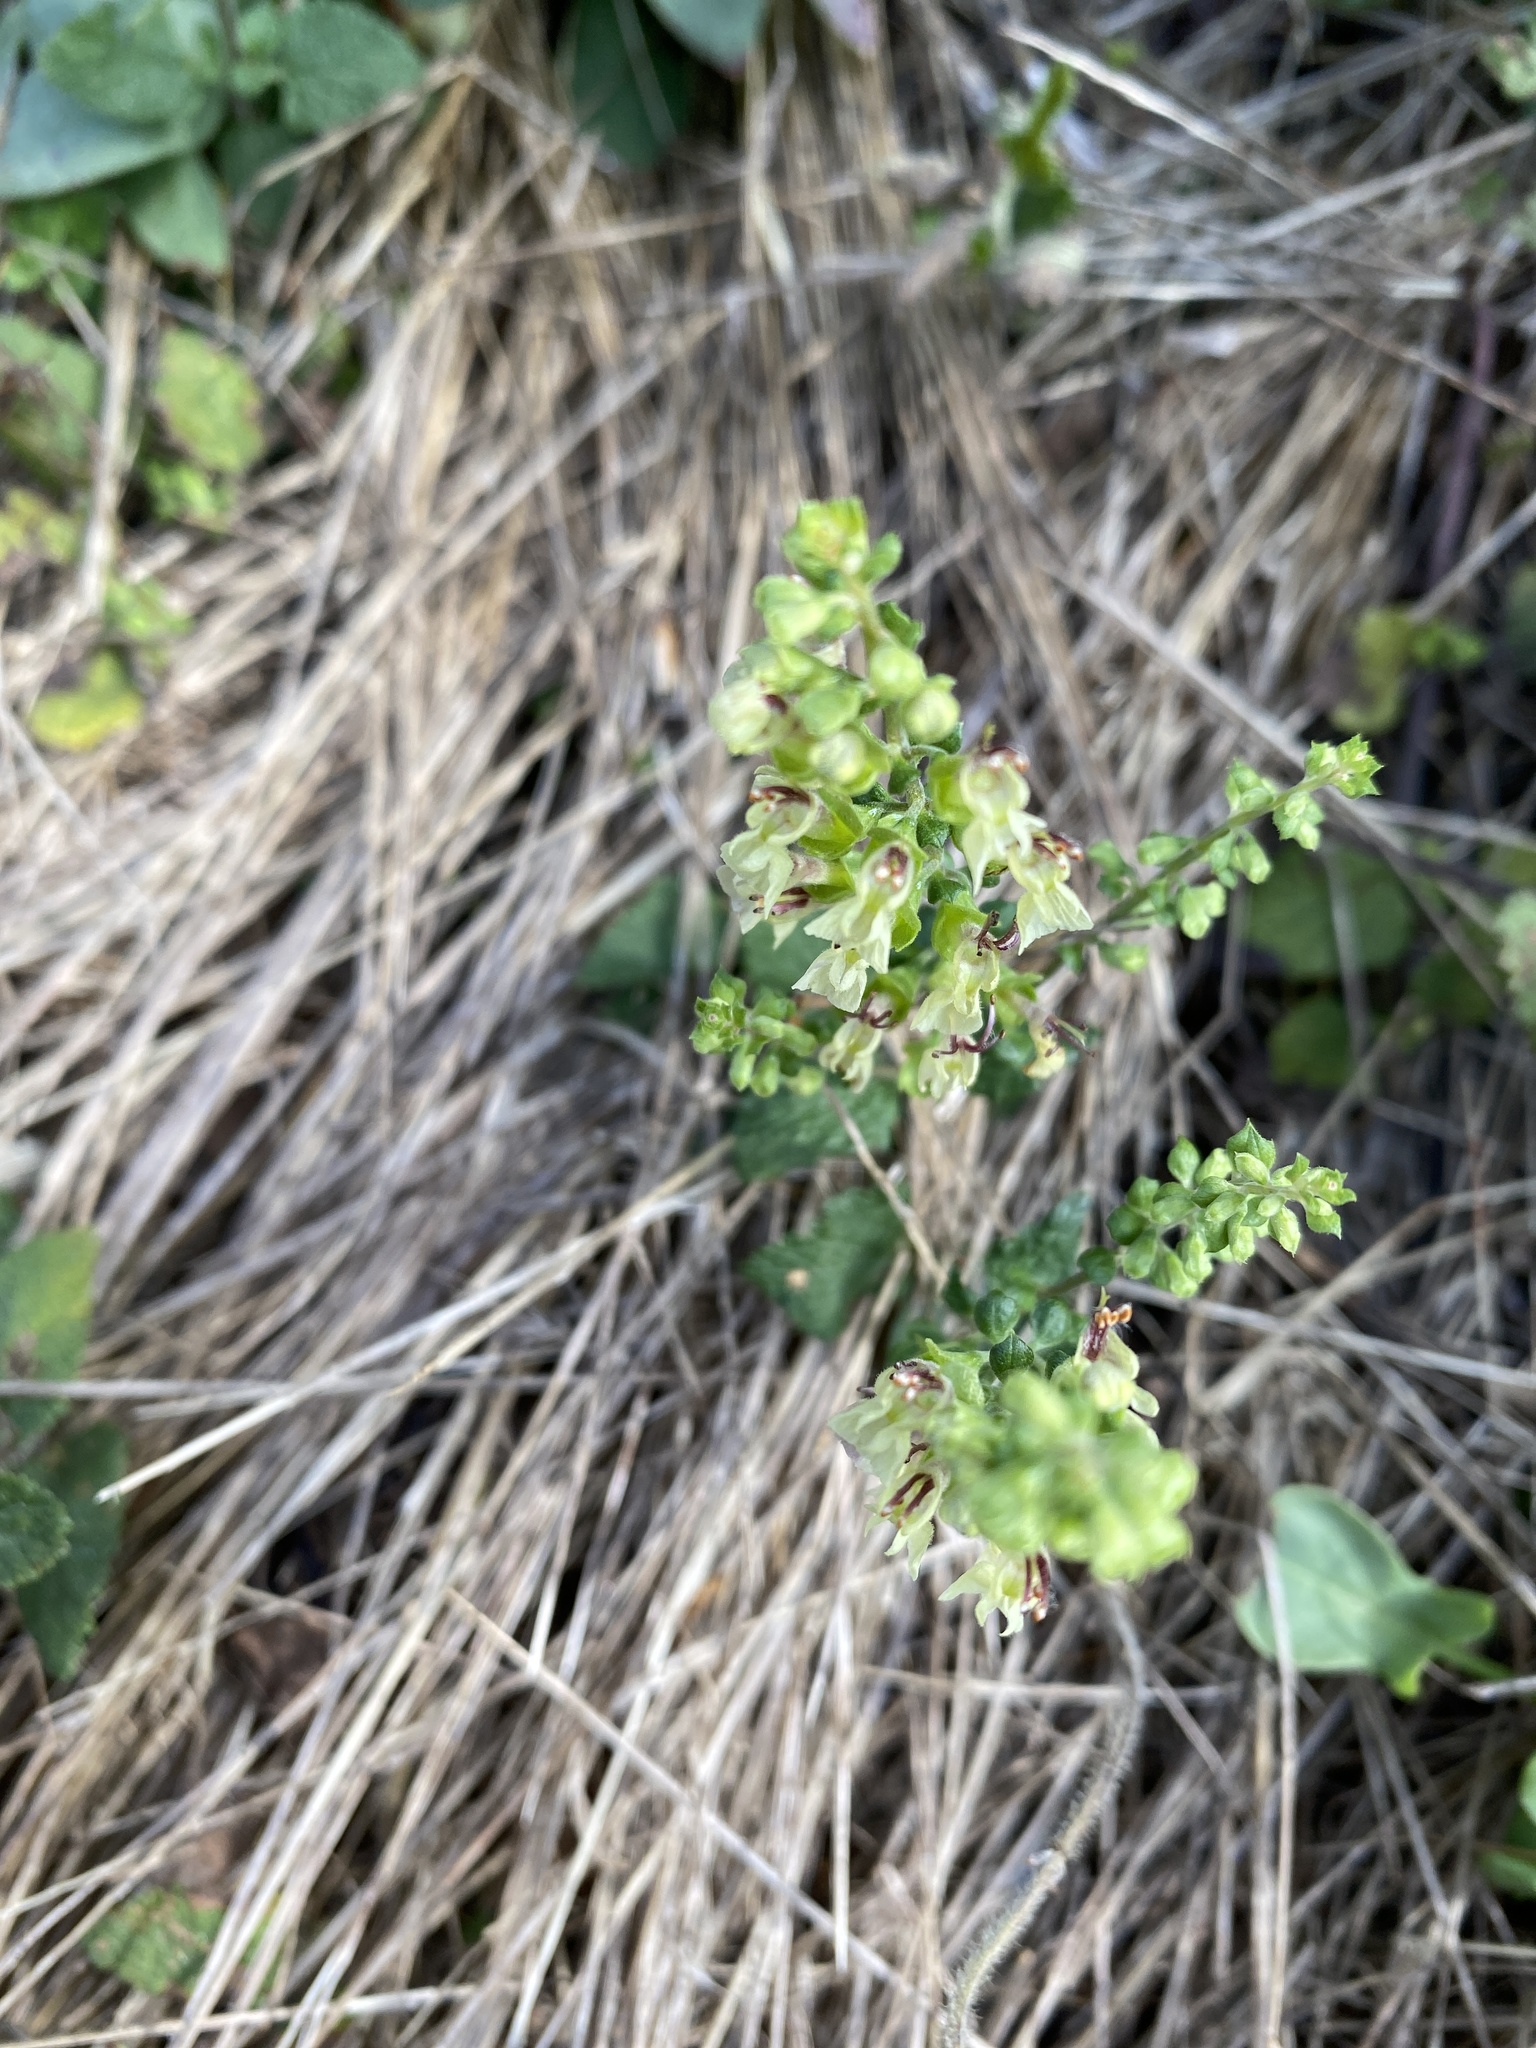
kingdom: Plantae
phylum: Tracheophyta
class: Magnoliopsida
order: Lamiales
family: Lamiaceae
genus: Teucrium
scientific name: Teucrium scorodonia
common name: Woodland germander
